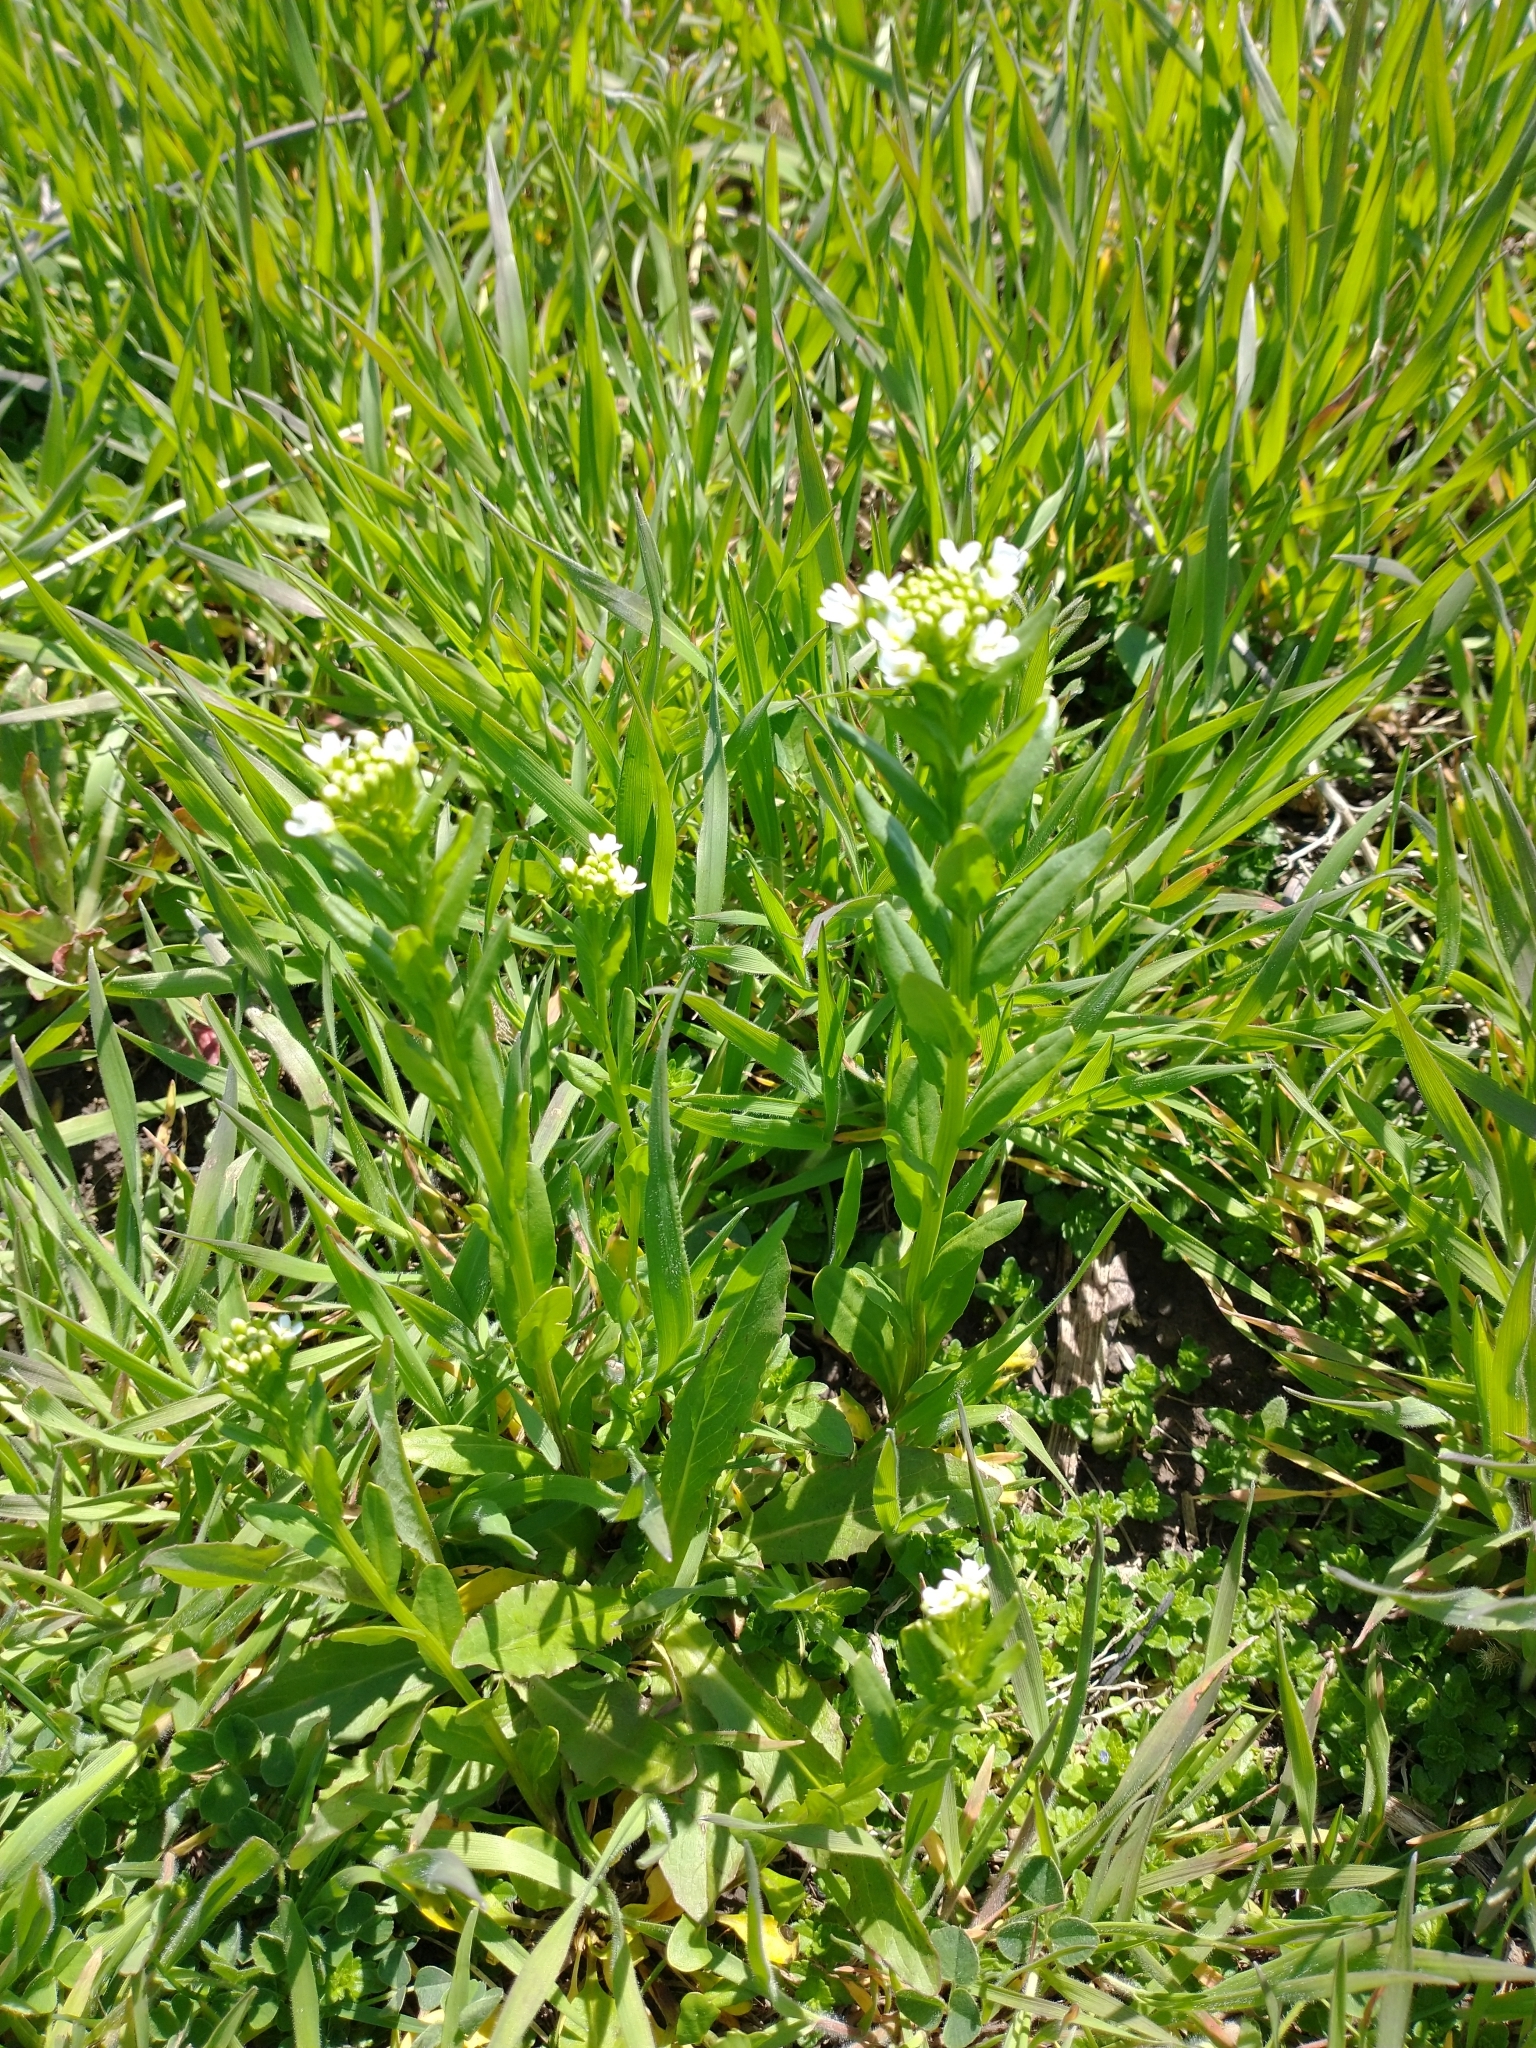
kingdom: Plantae
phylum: Tracheophyta
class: Magnoliopsida
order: Brassicales
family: Brassicaceae
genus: Thlaspi
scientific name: Thlaspi arvense
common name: Field pennycress
